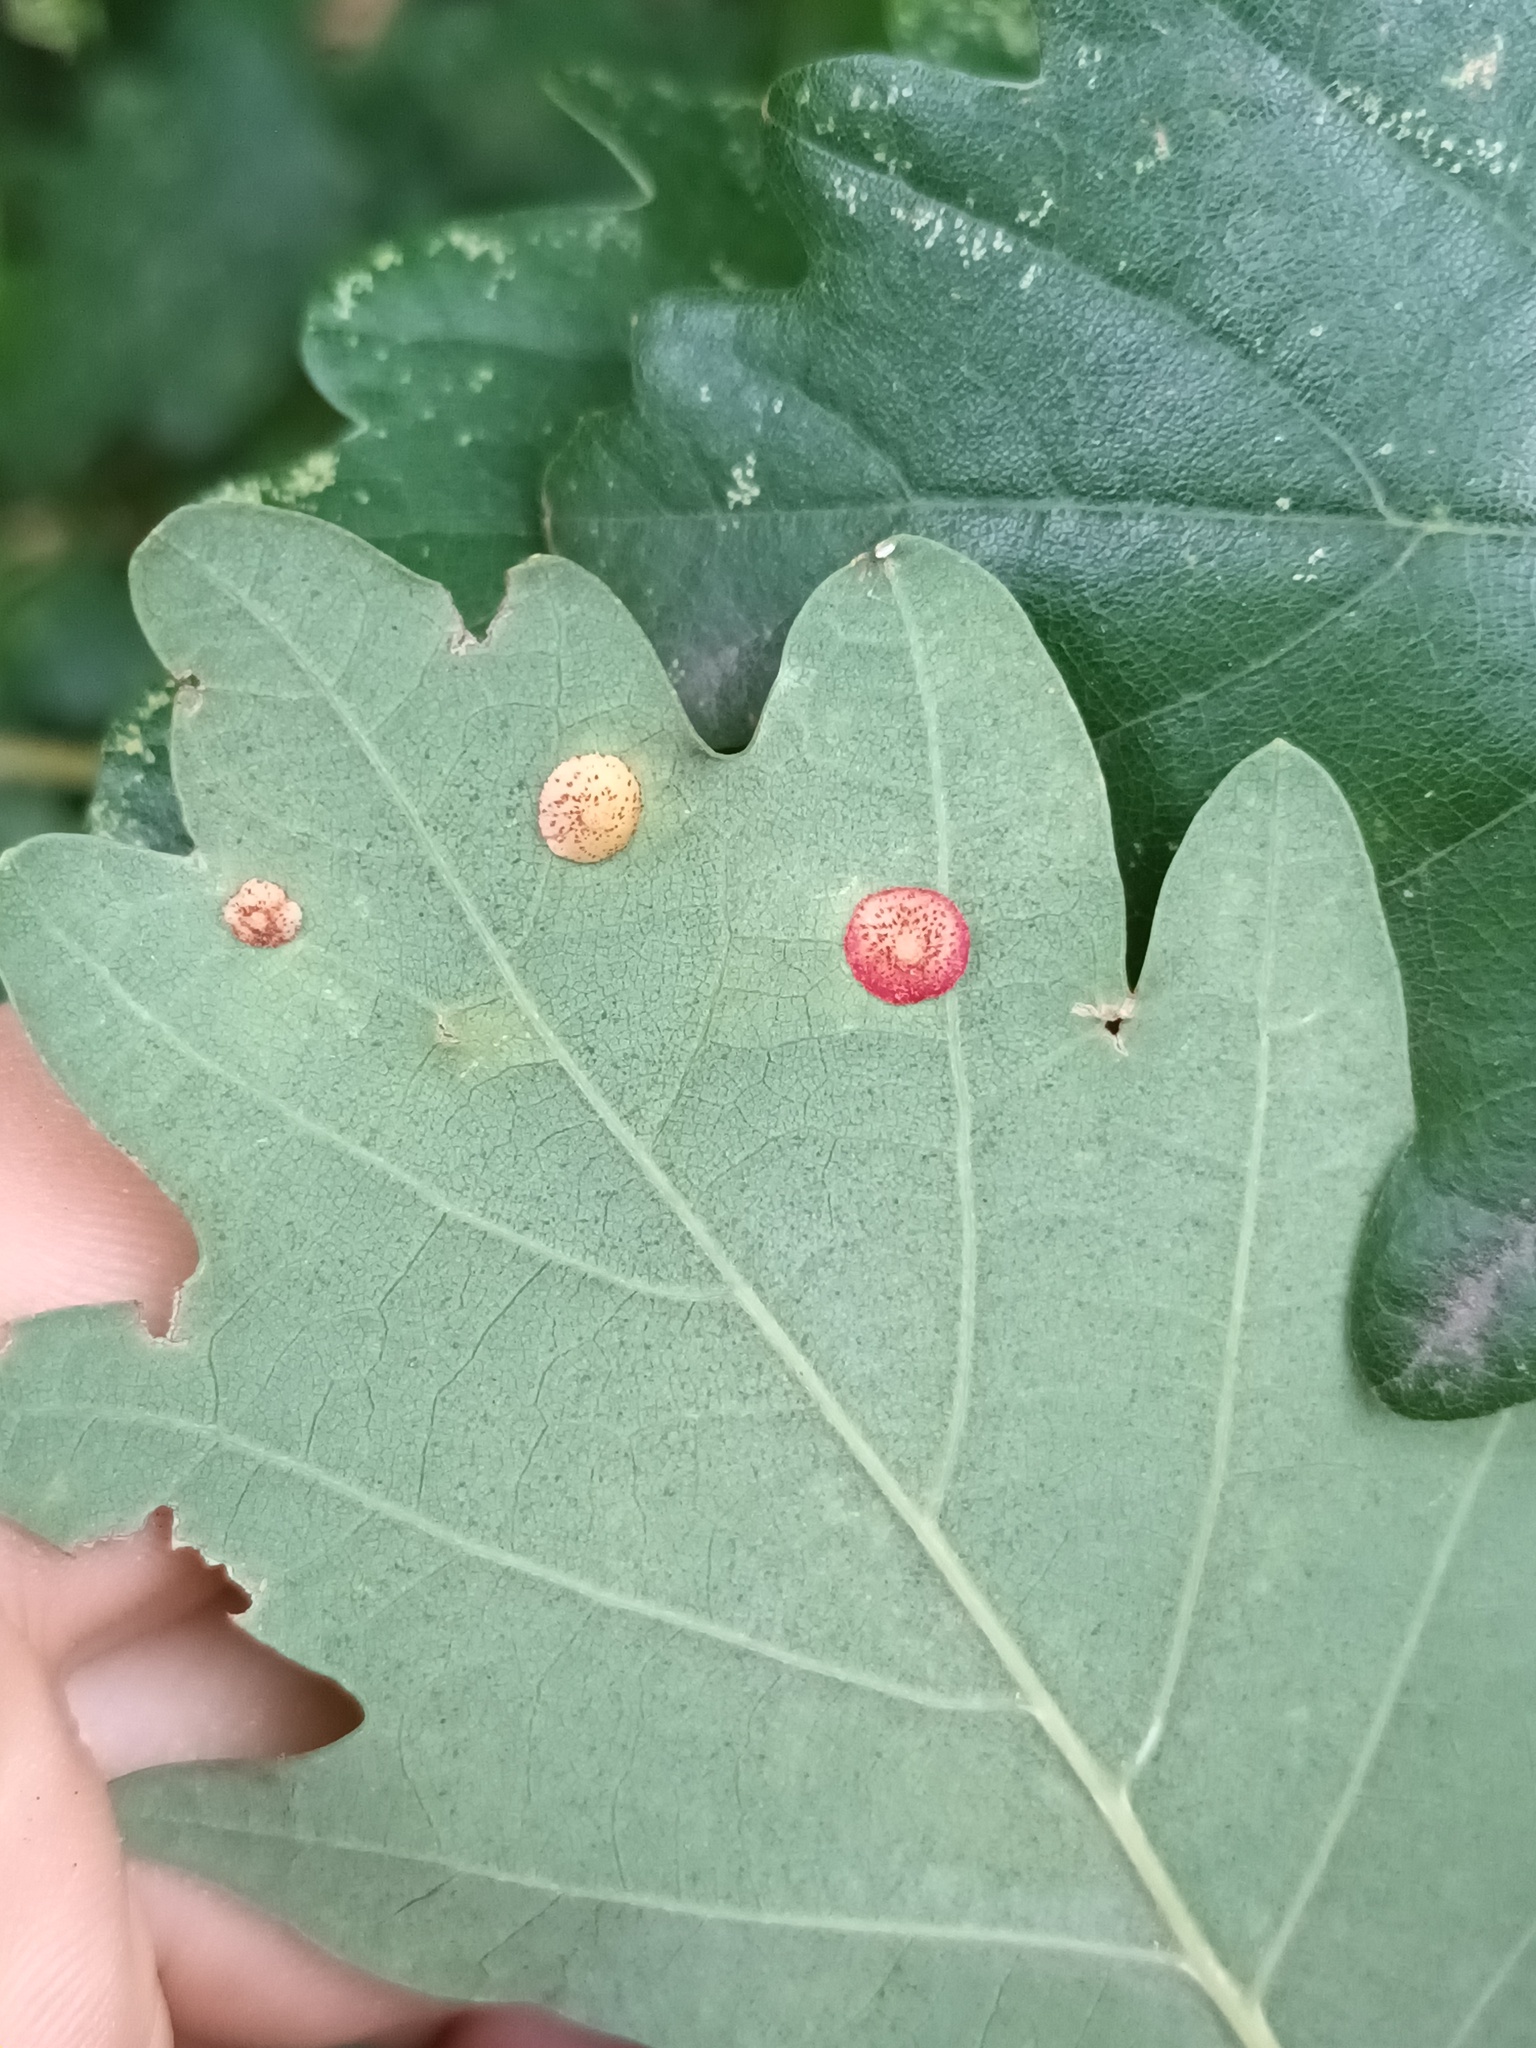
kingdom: Animalia
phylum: Arthropoda
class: Insecta
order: Hymenoptera
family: Cynipidae
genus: Neuroterus
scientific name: Neuroterus quercusbaccarum
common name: Common spangle gall
